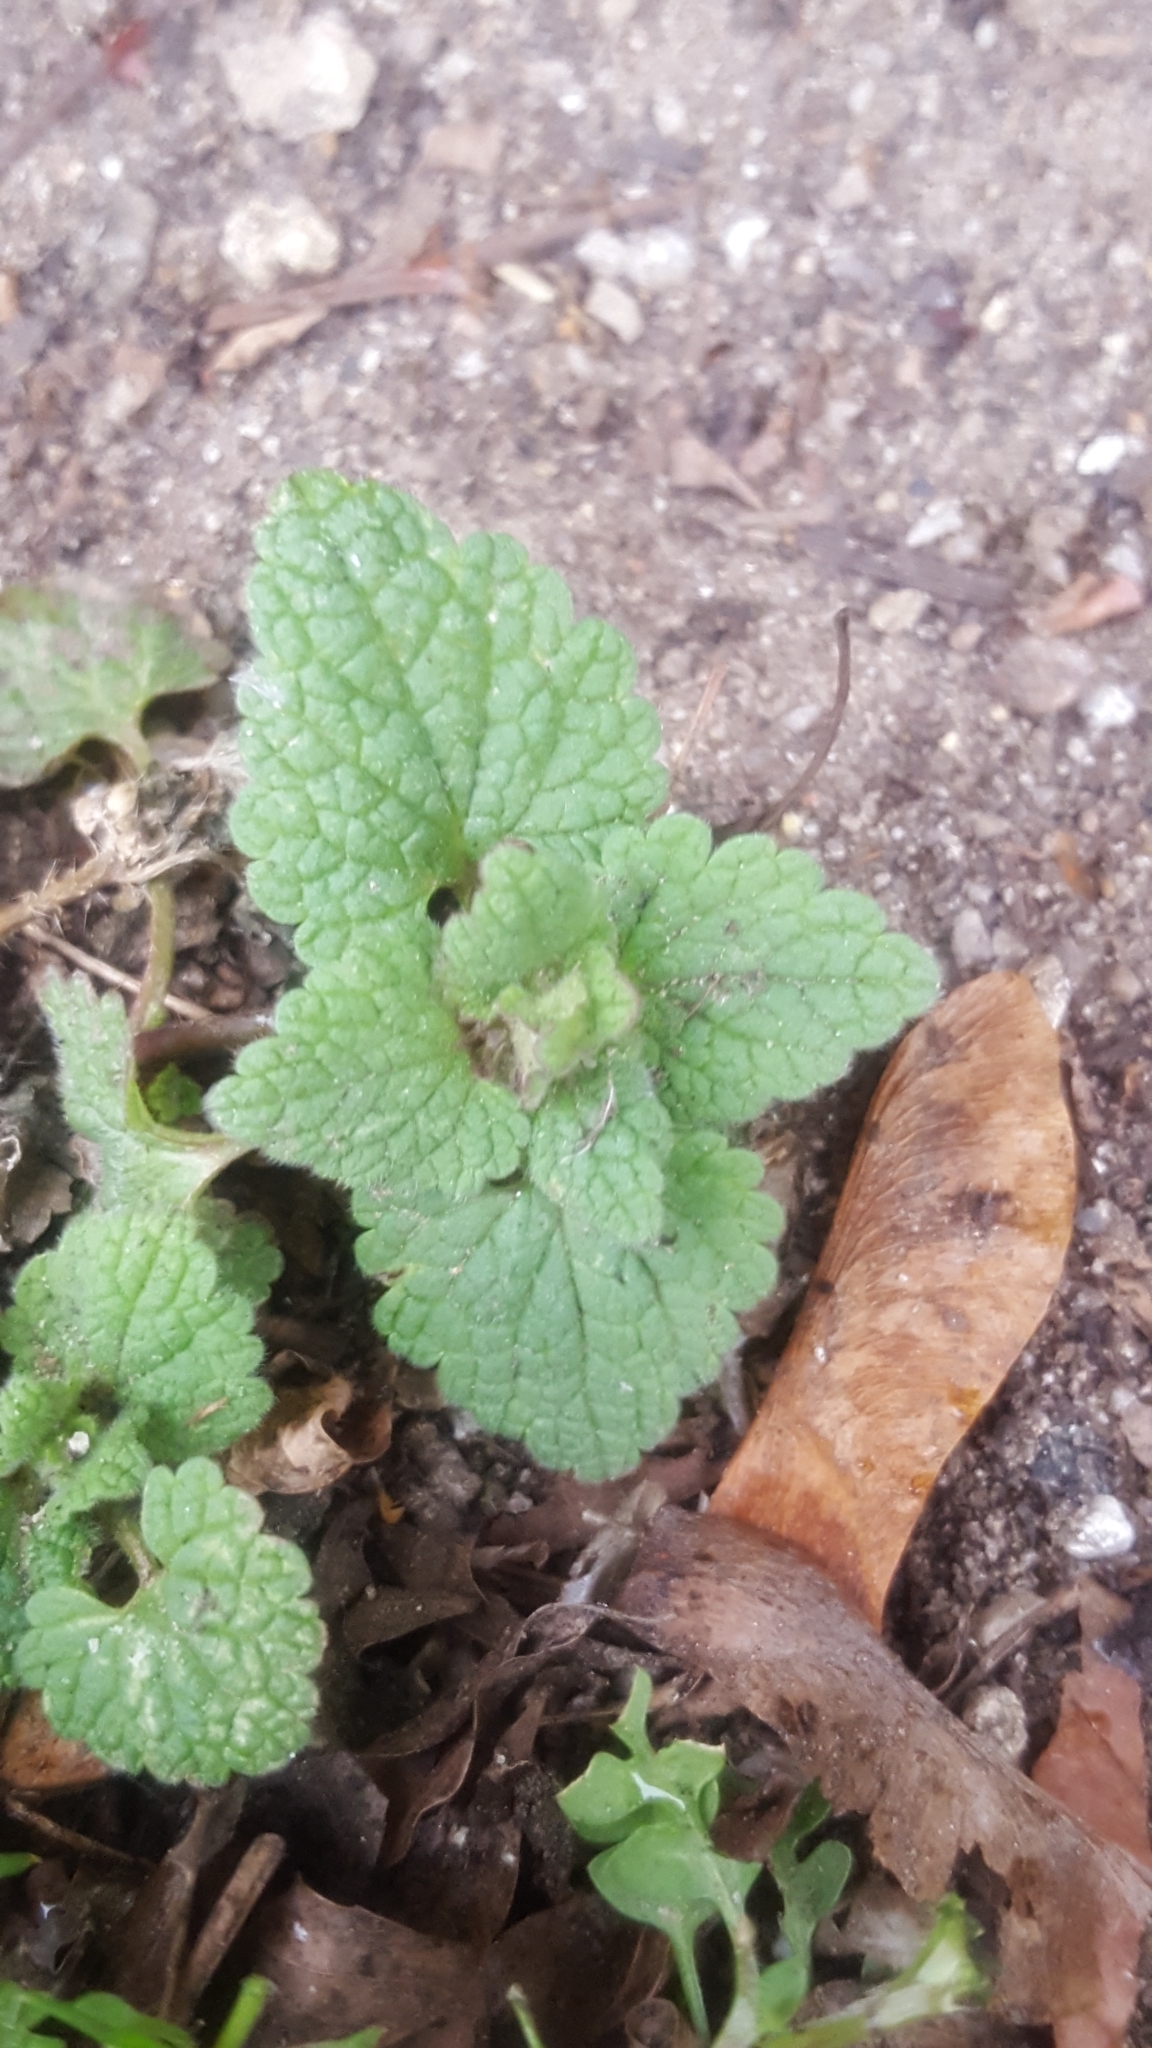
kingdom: Plantae
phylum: Tracheophyta
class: Magnoliopsida
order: Lamiales
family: Lamiaceae
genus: Lamium
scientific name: Lamium purpureum
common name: Red dead-nettle
